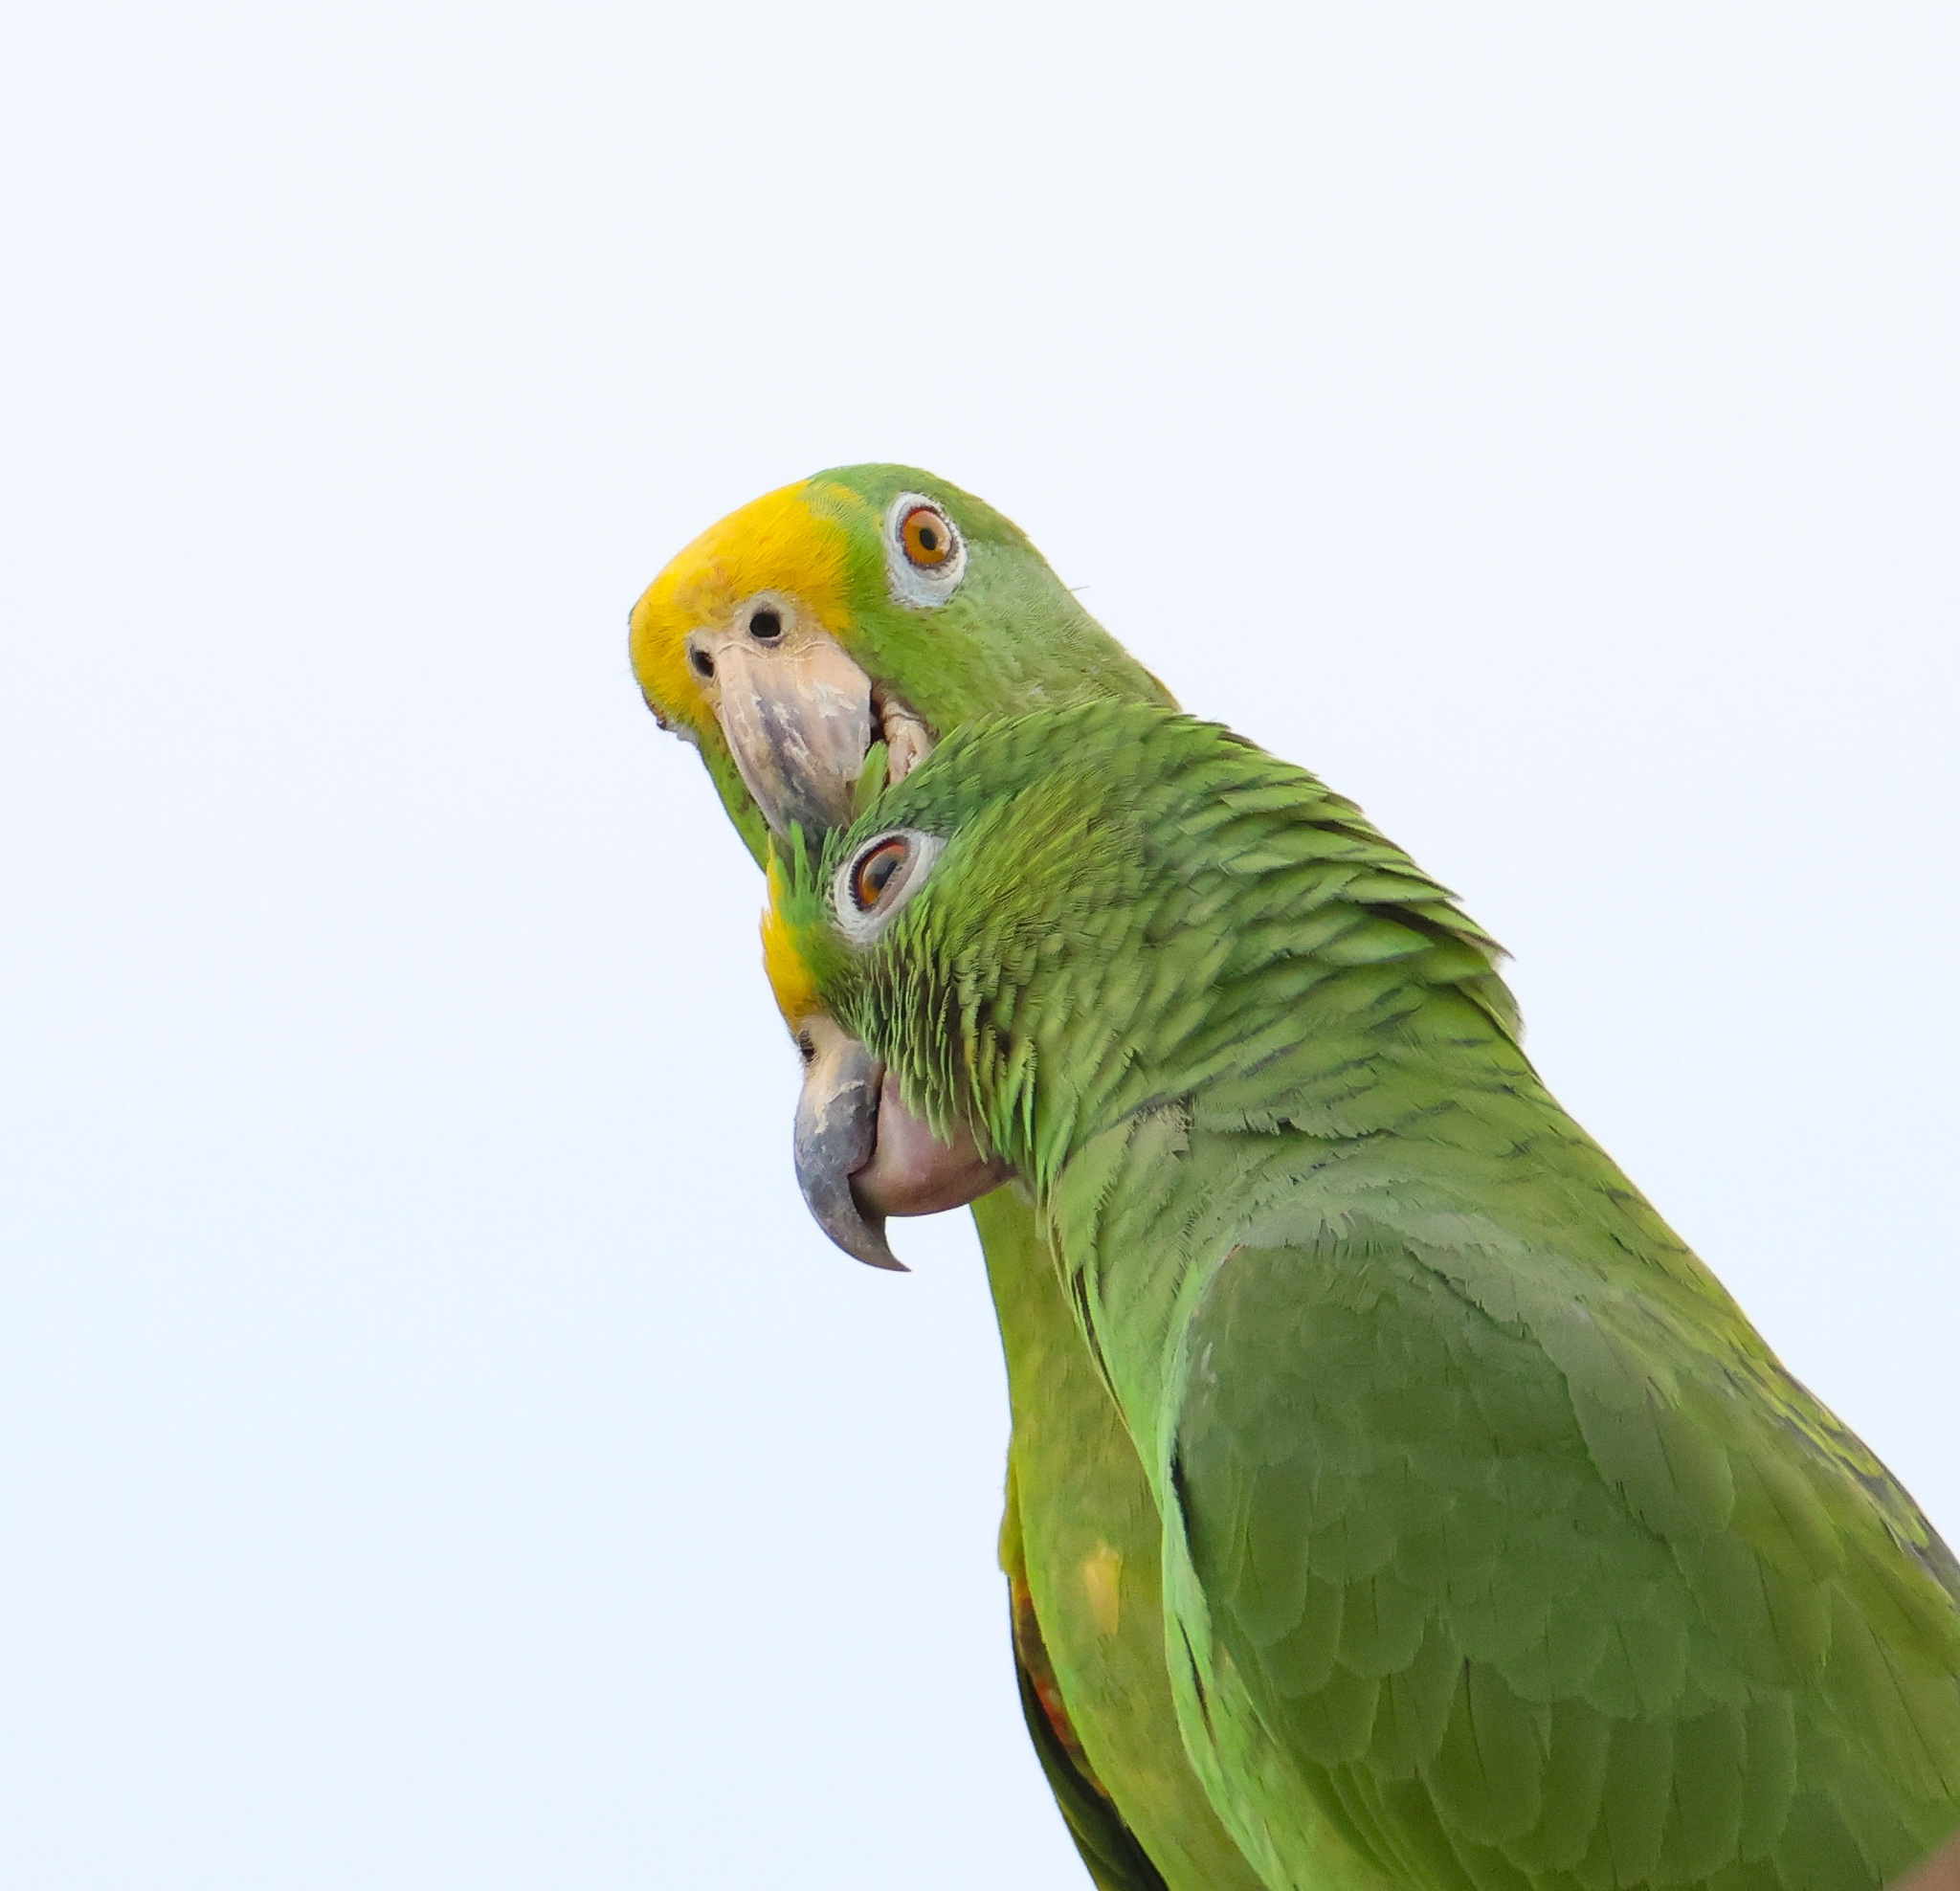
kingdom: Animalia
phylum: Chordata
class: Aves
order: Psittaciformes
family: Psittacidae
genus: Amazona
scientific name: Amazona ochrocephala
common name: Yellow-crowned amazon
